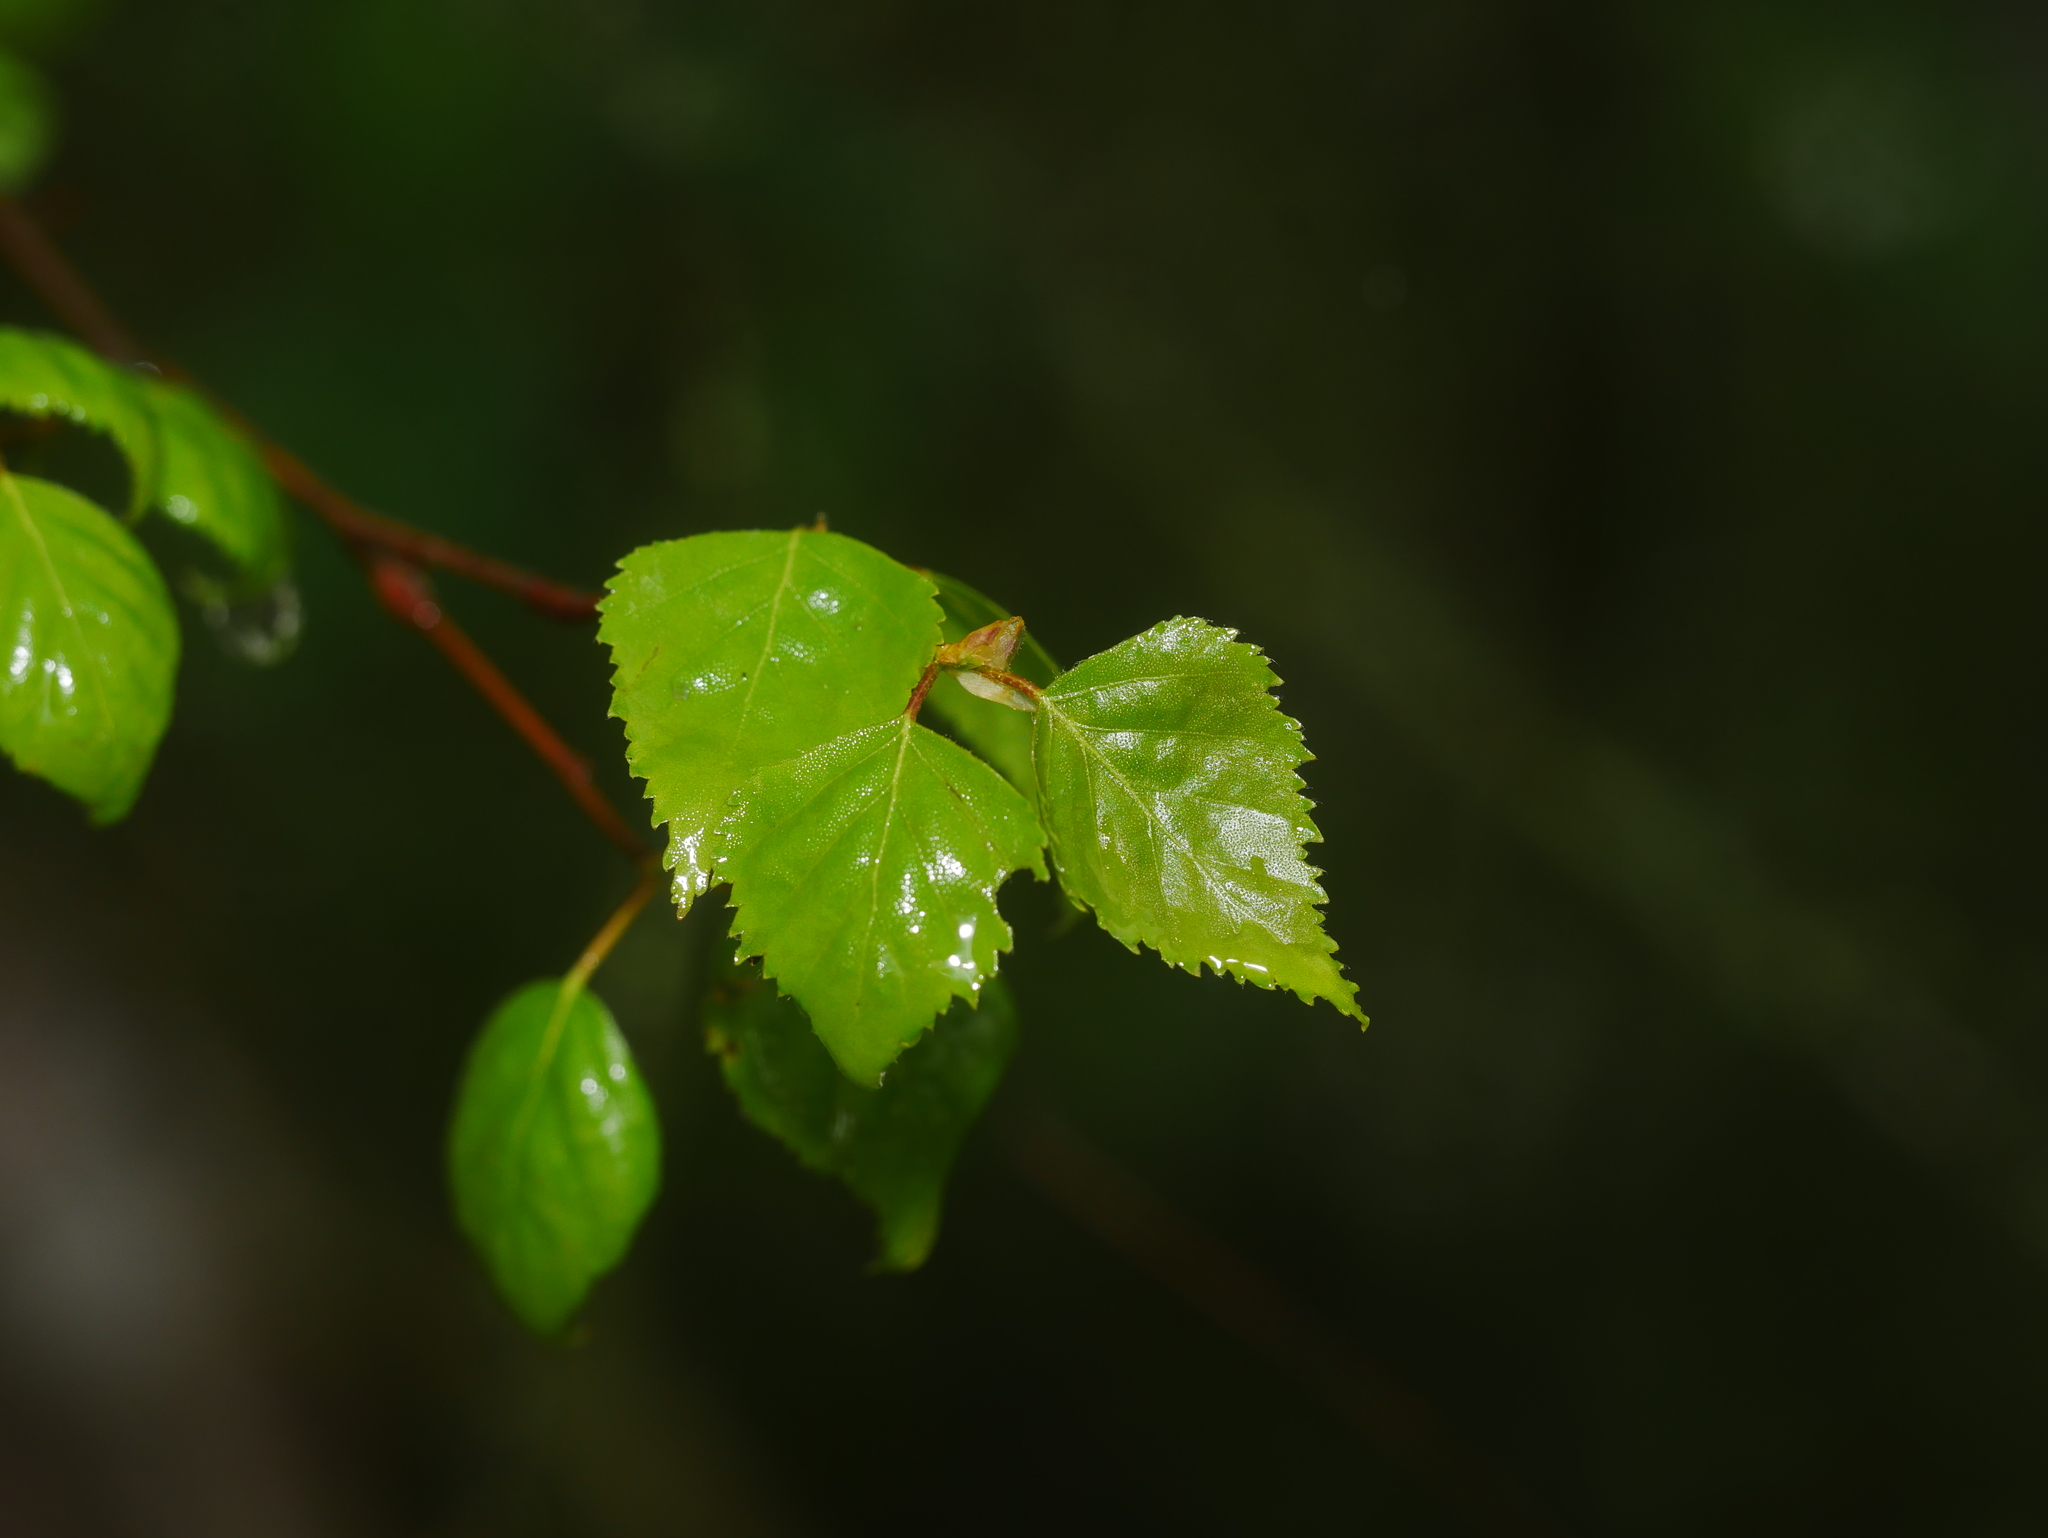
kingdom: Plantae
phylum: Tracheophyta
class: Magnoliopsida
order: Fagales
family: Betulaceae
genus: Betula
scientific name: Betula pendula
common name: Silver birch
